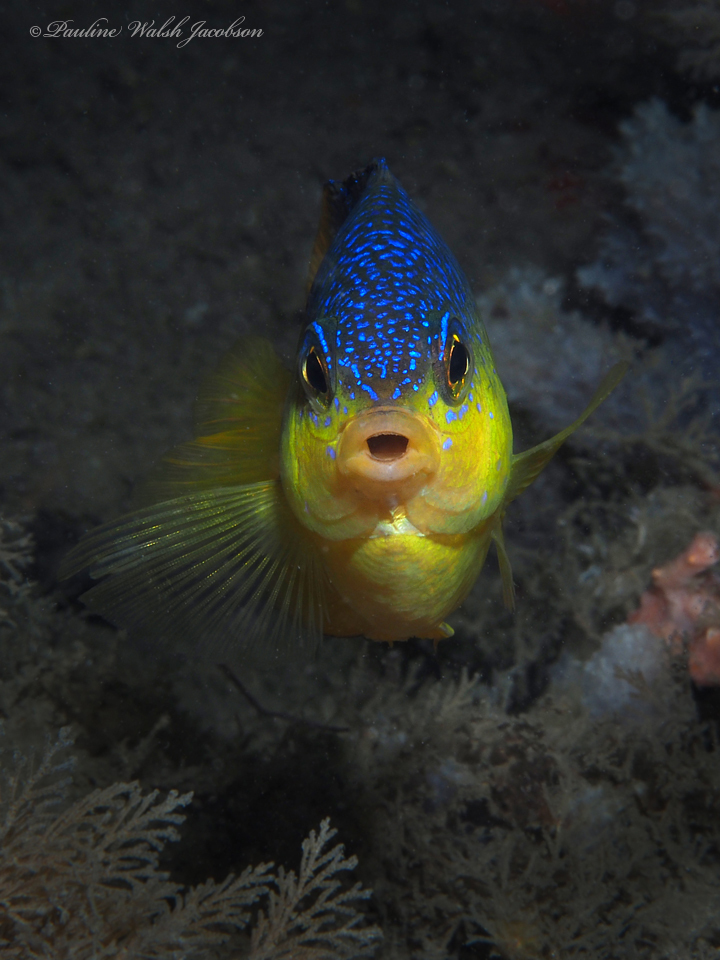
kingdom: Animalia
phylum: Chordata
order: Perciformes
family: Pomacentridae
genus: Stegastes
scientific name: Stegastes xanthurus
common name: Cocoa damselfish
